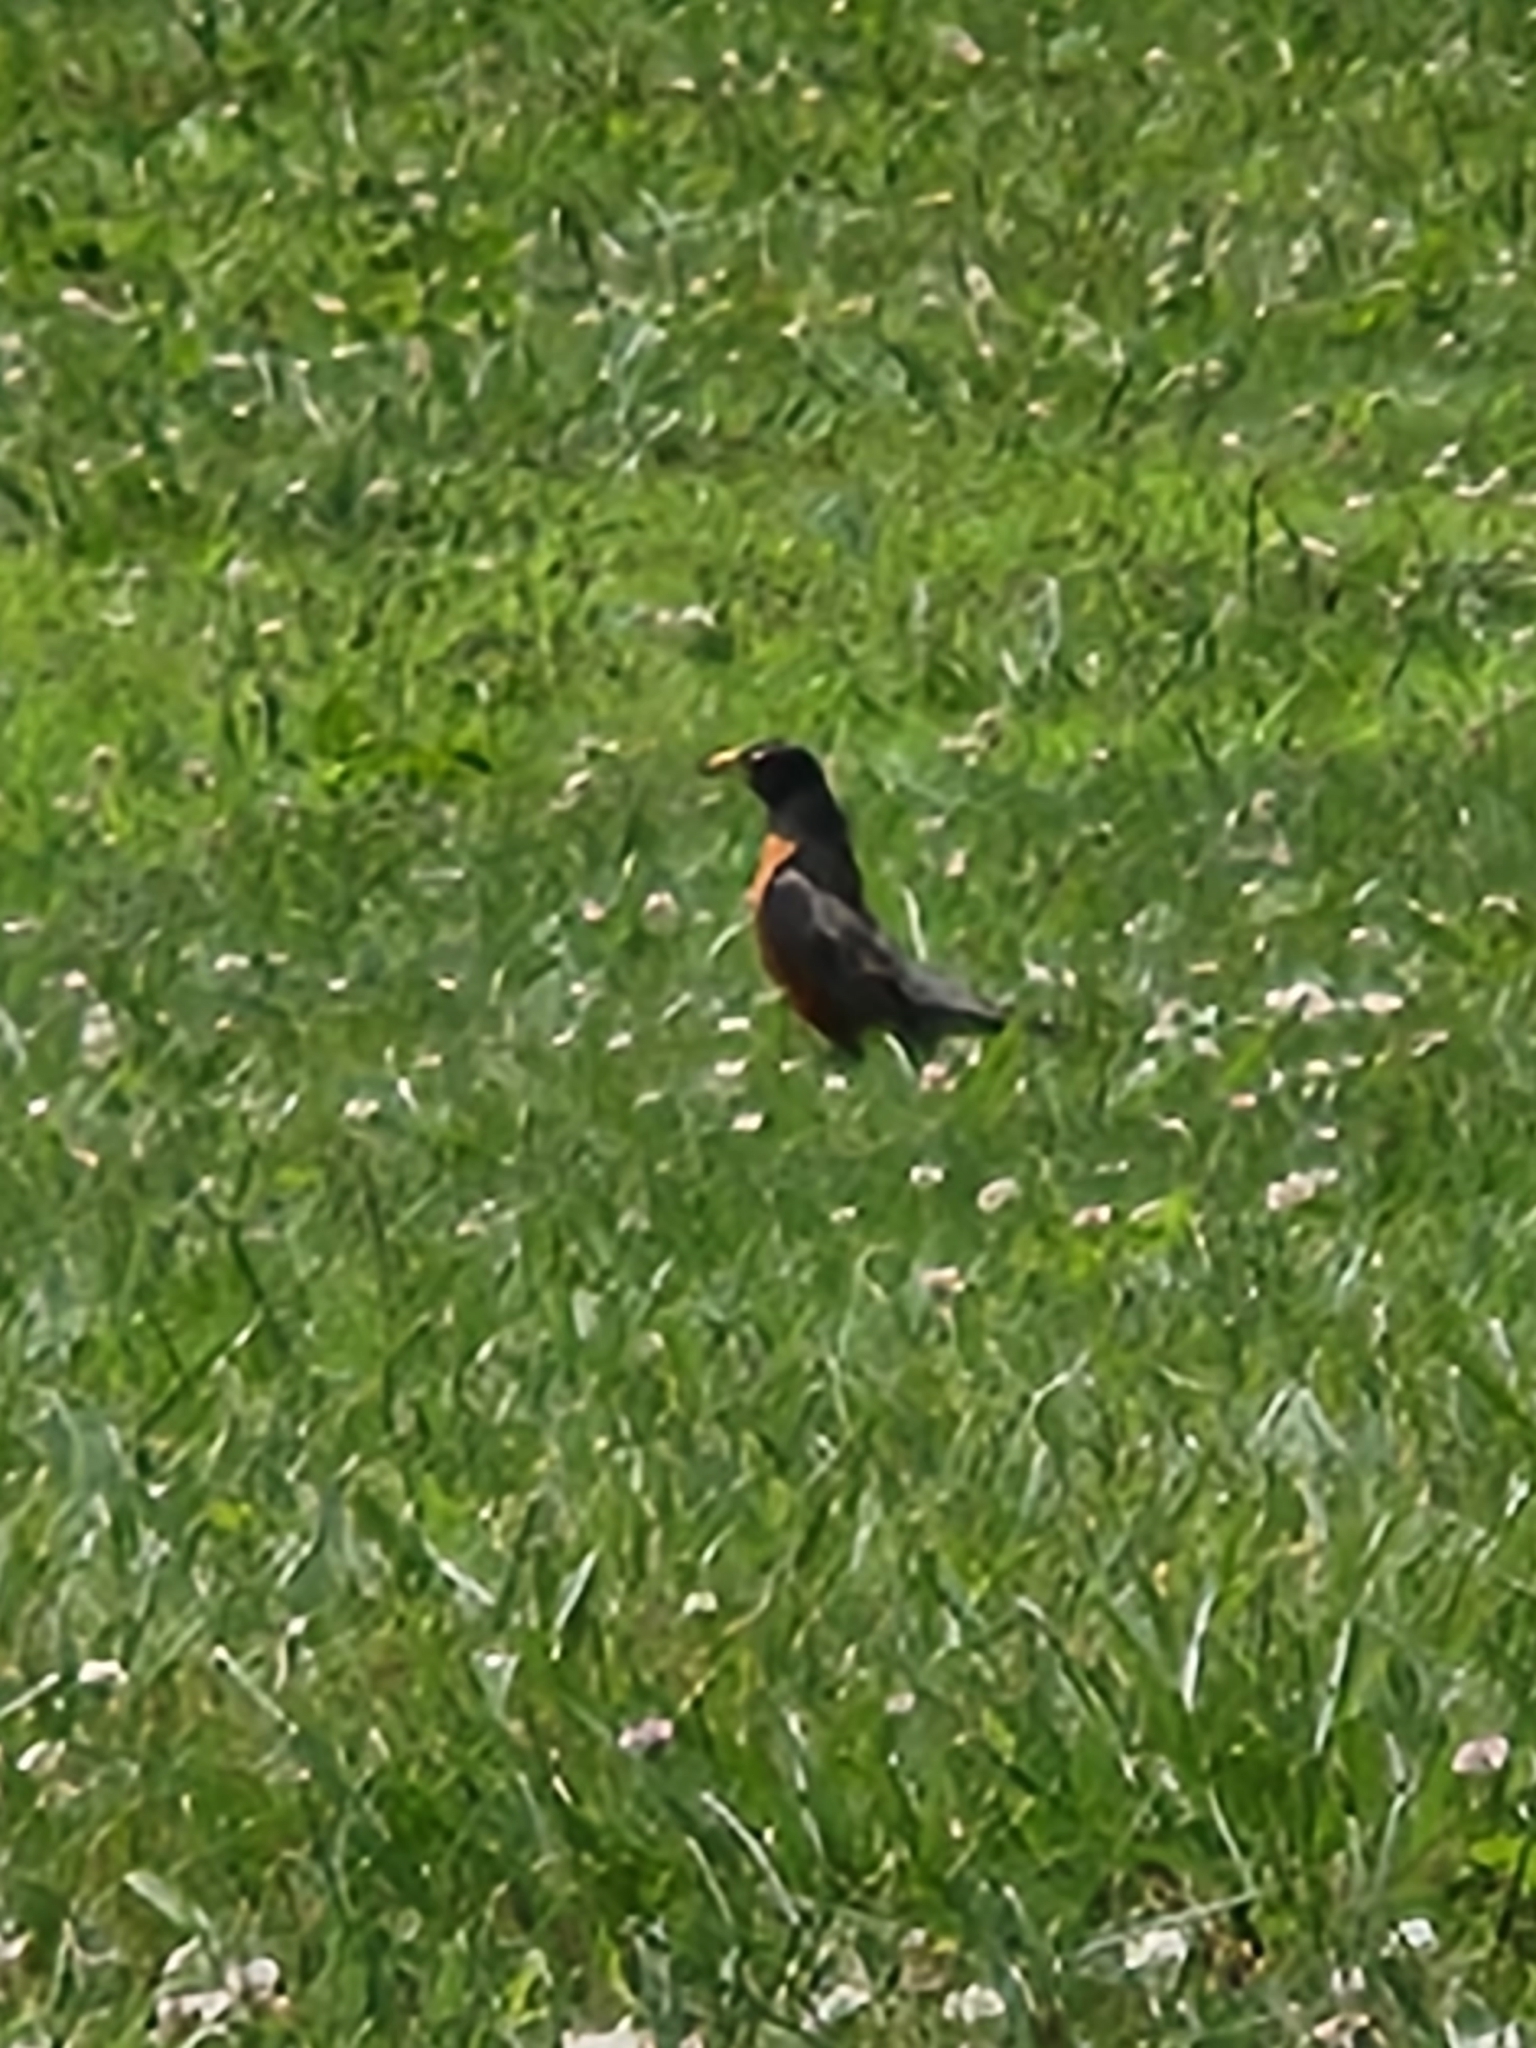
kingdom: Animalia
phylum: Chordata
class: Aves
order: Passeriformes
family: Turdidae
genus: Turdus
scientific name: Turdus migratorius
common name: American robin
